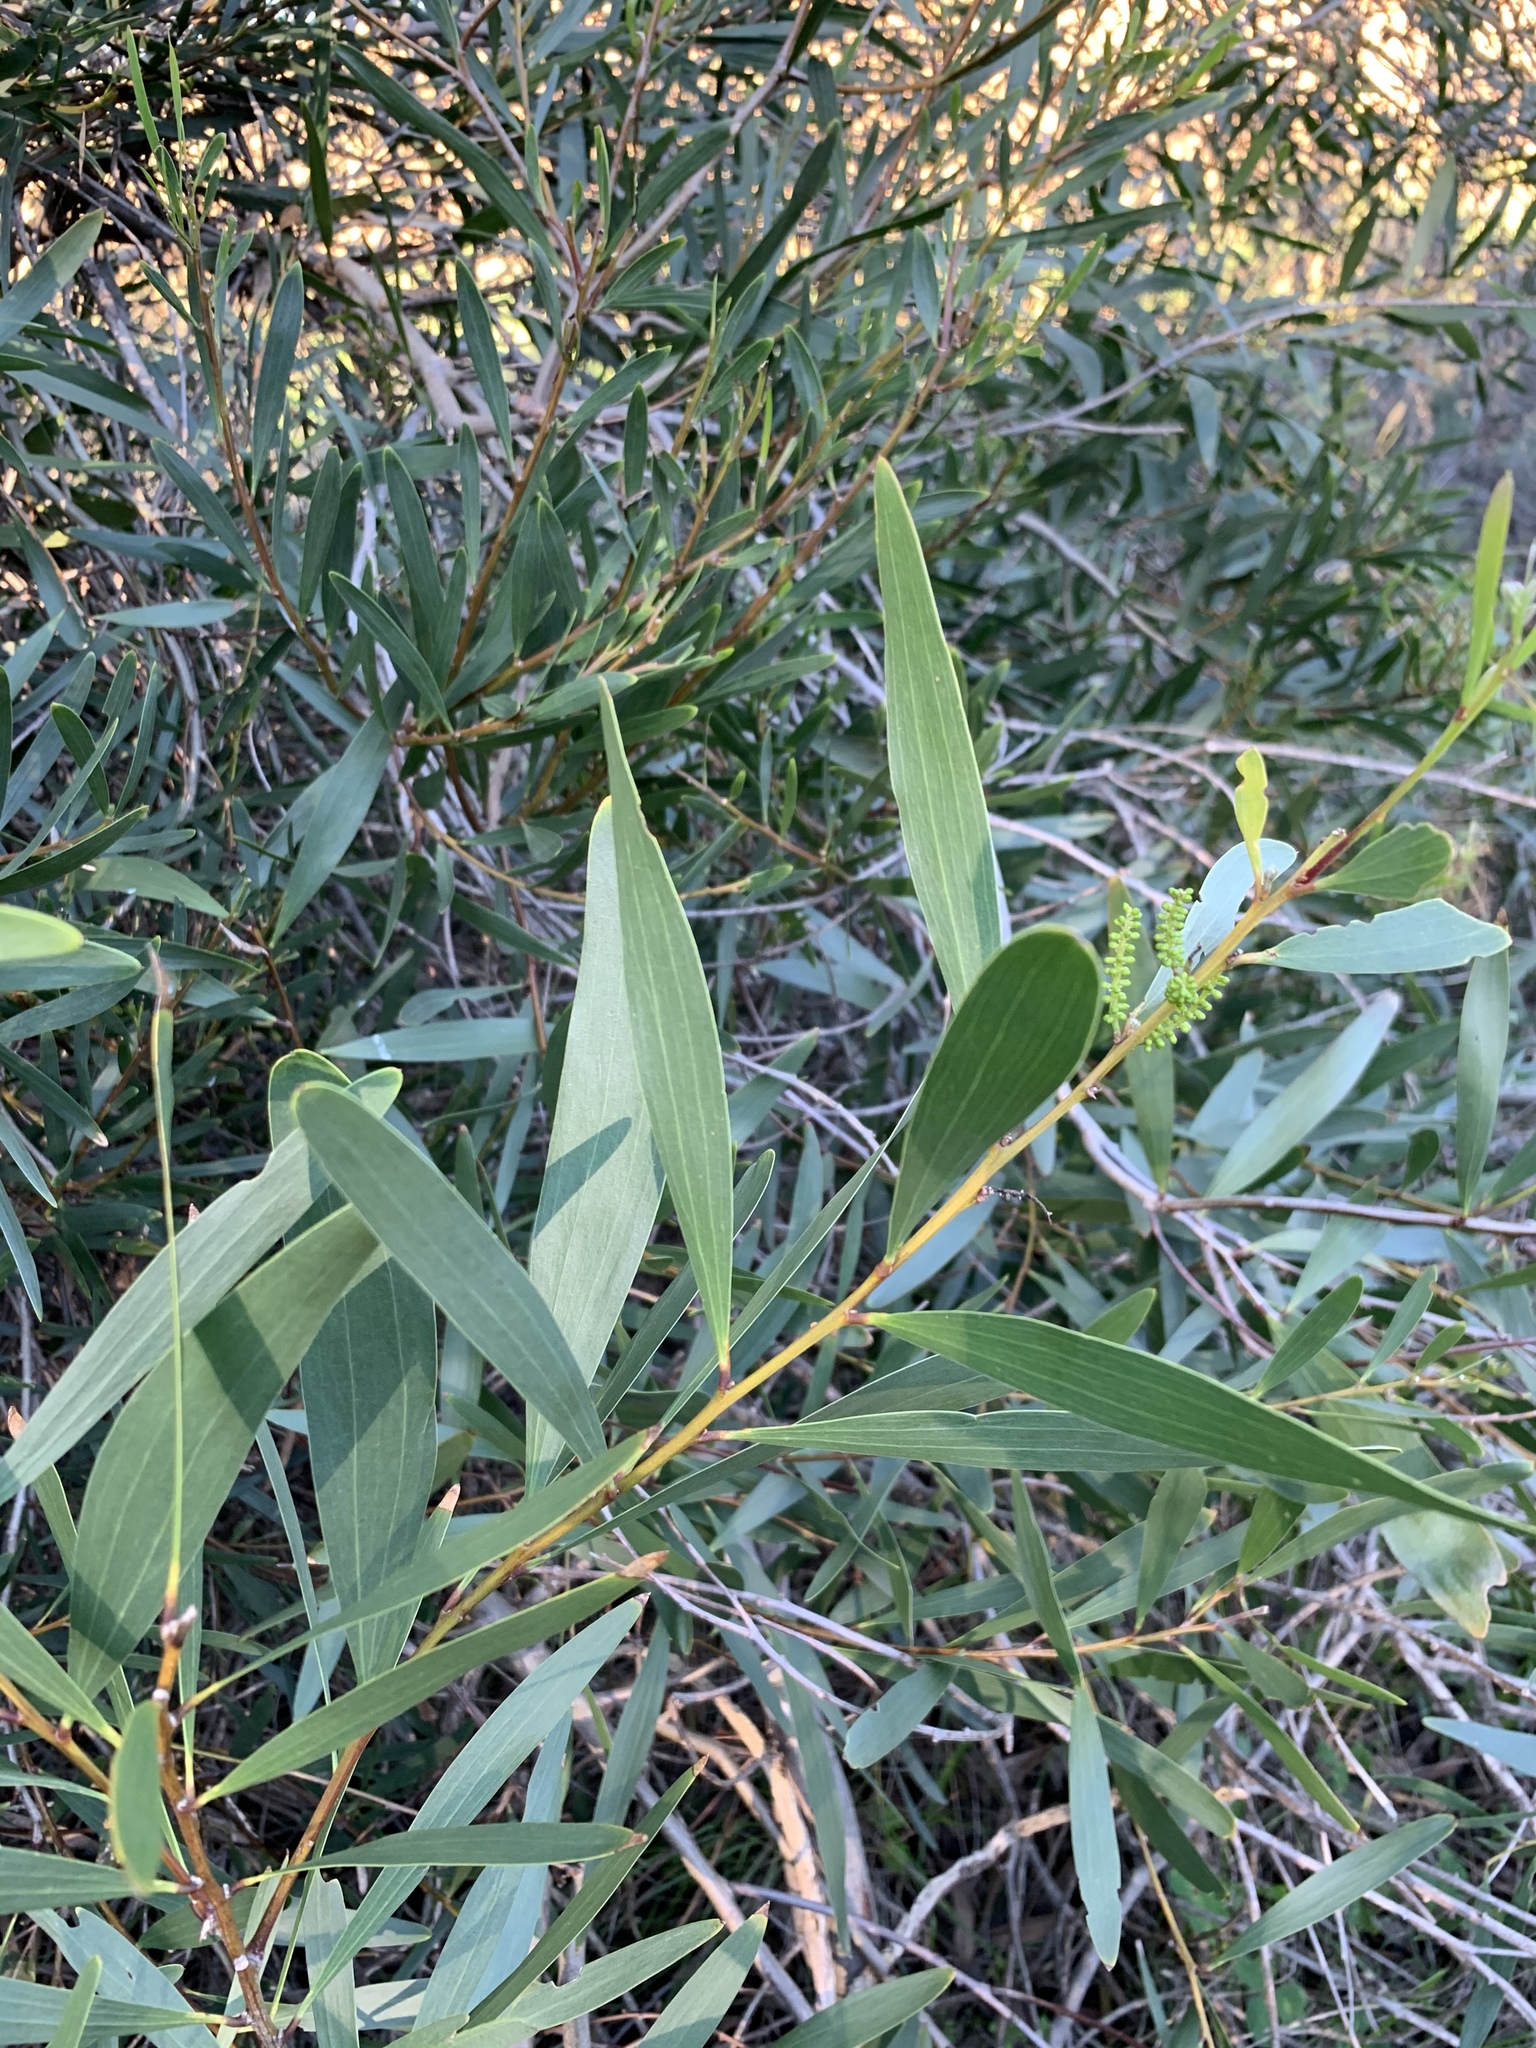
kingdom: Plantae
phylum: Tracheophyta
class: Magnoliopsida
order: Fabales
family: Fabaceae
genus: Acacia
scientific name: Acacia longifolia
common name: Sydney golden wattle
